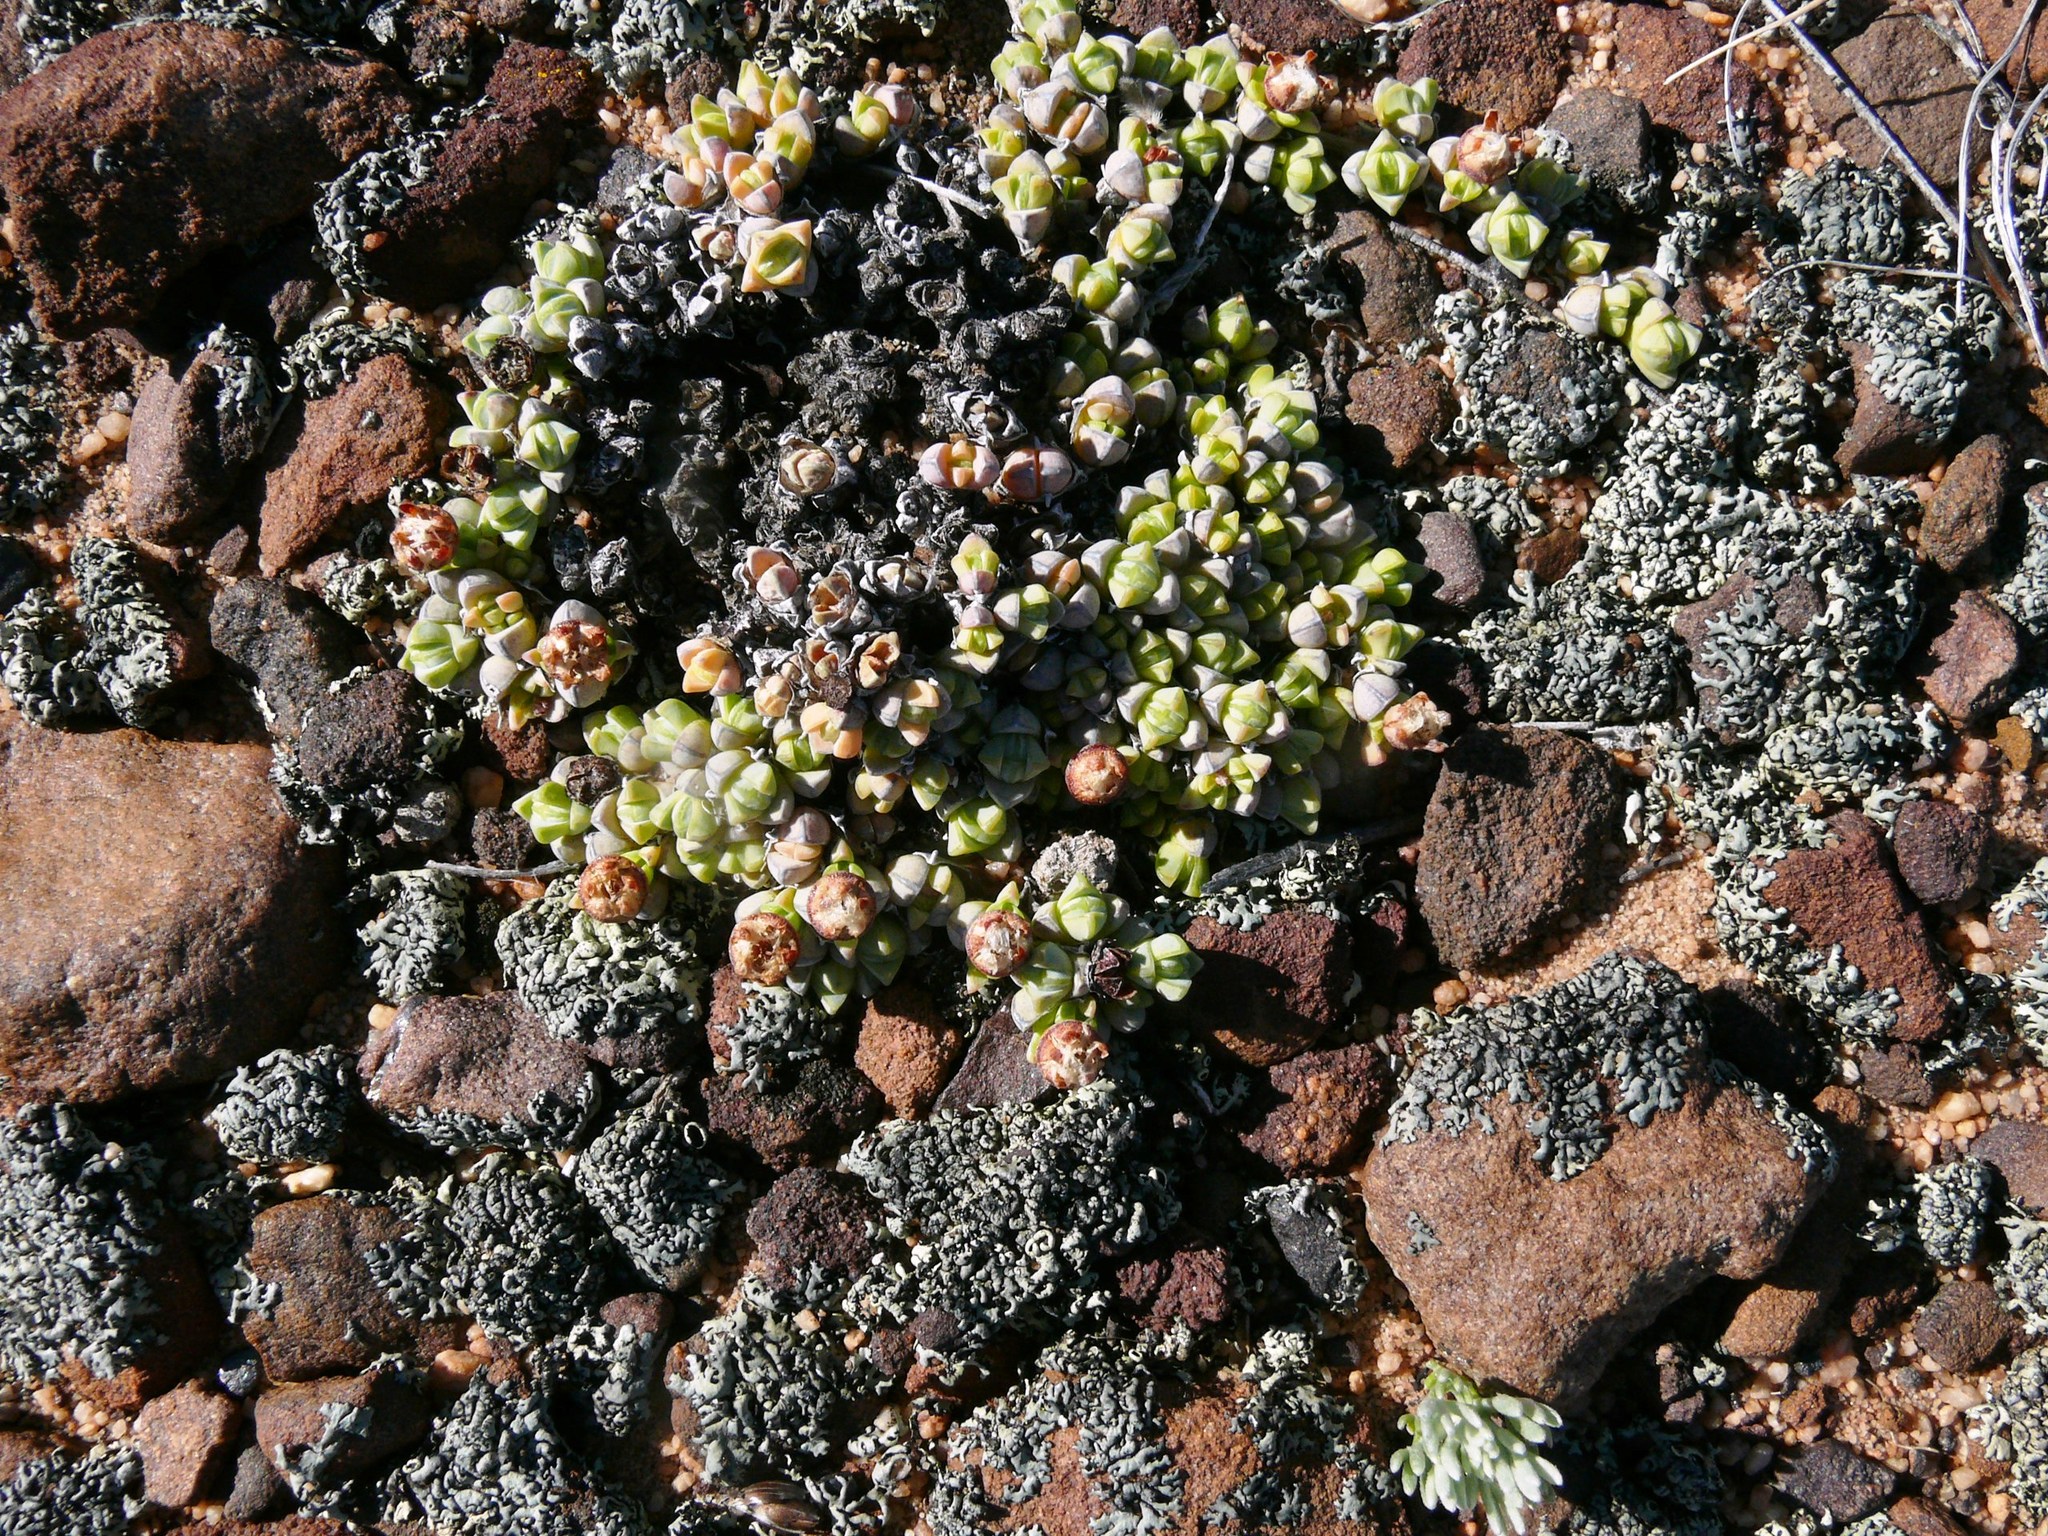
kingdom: Plantae
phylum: Tracheophyta
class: Magnoliopsida
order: Caryophyllales
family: Aizoaceae
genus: Antimima
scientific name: Antimima pumila
